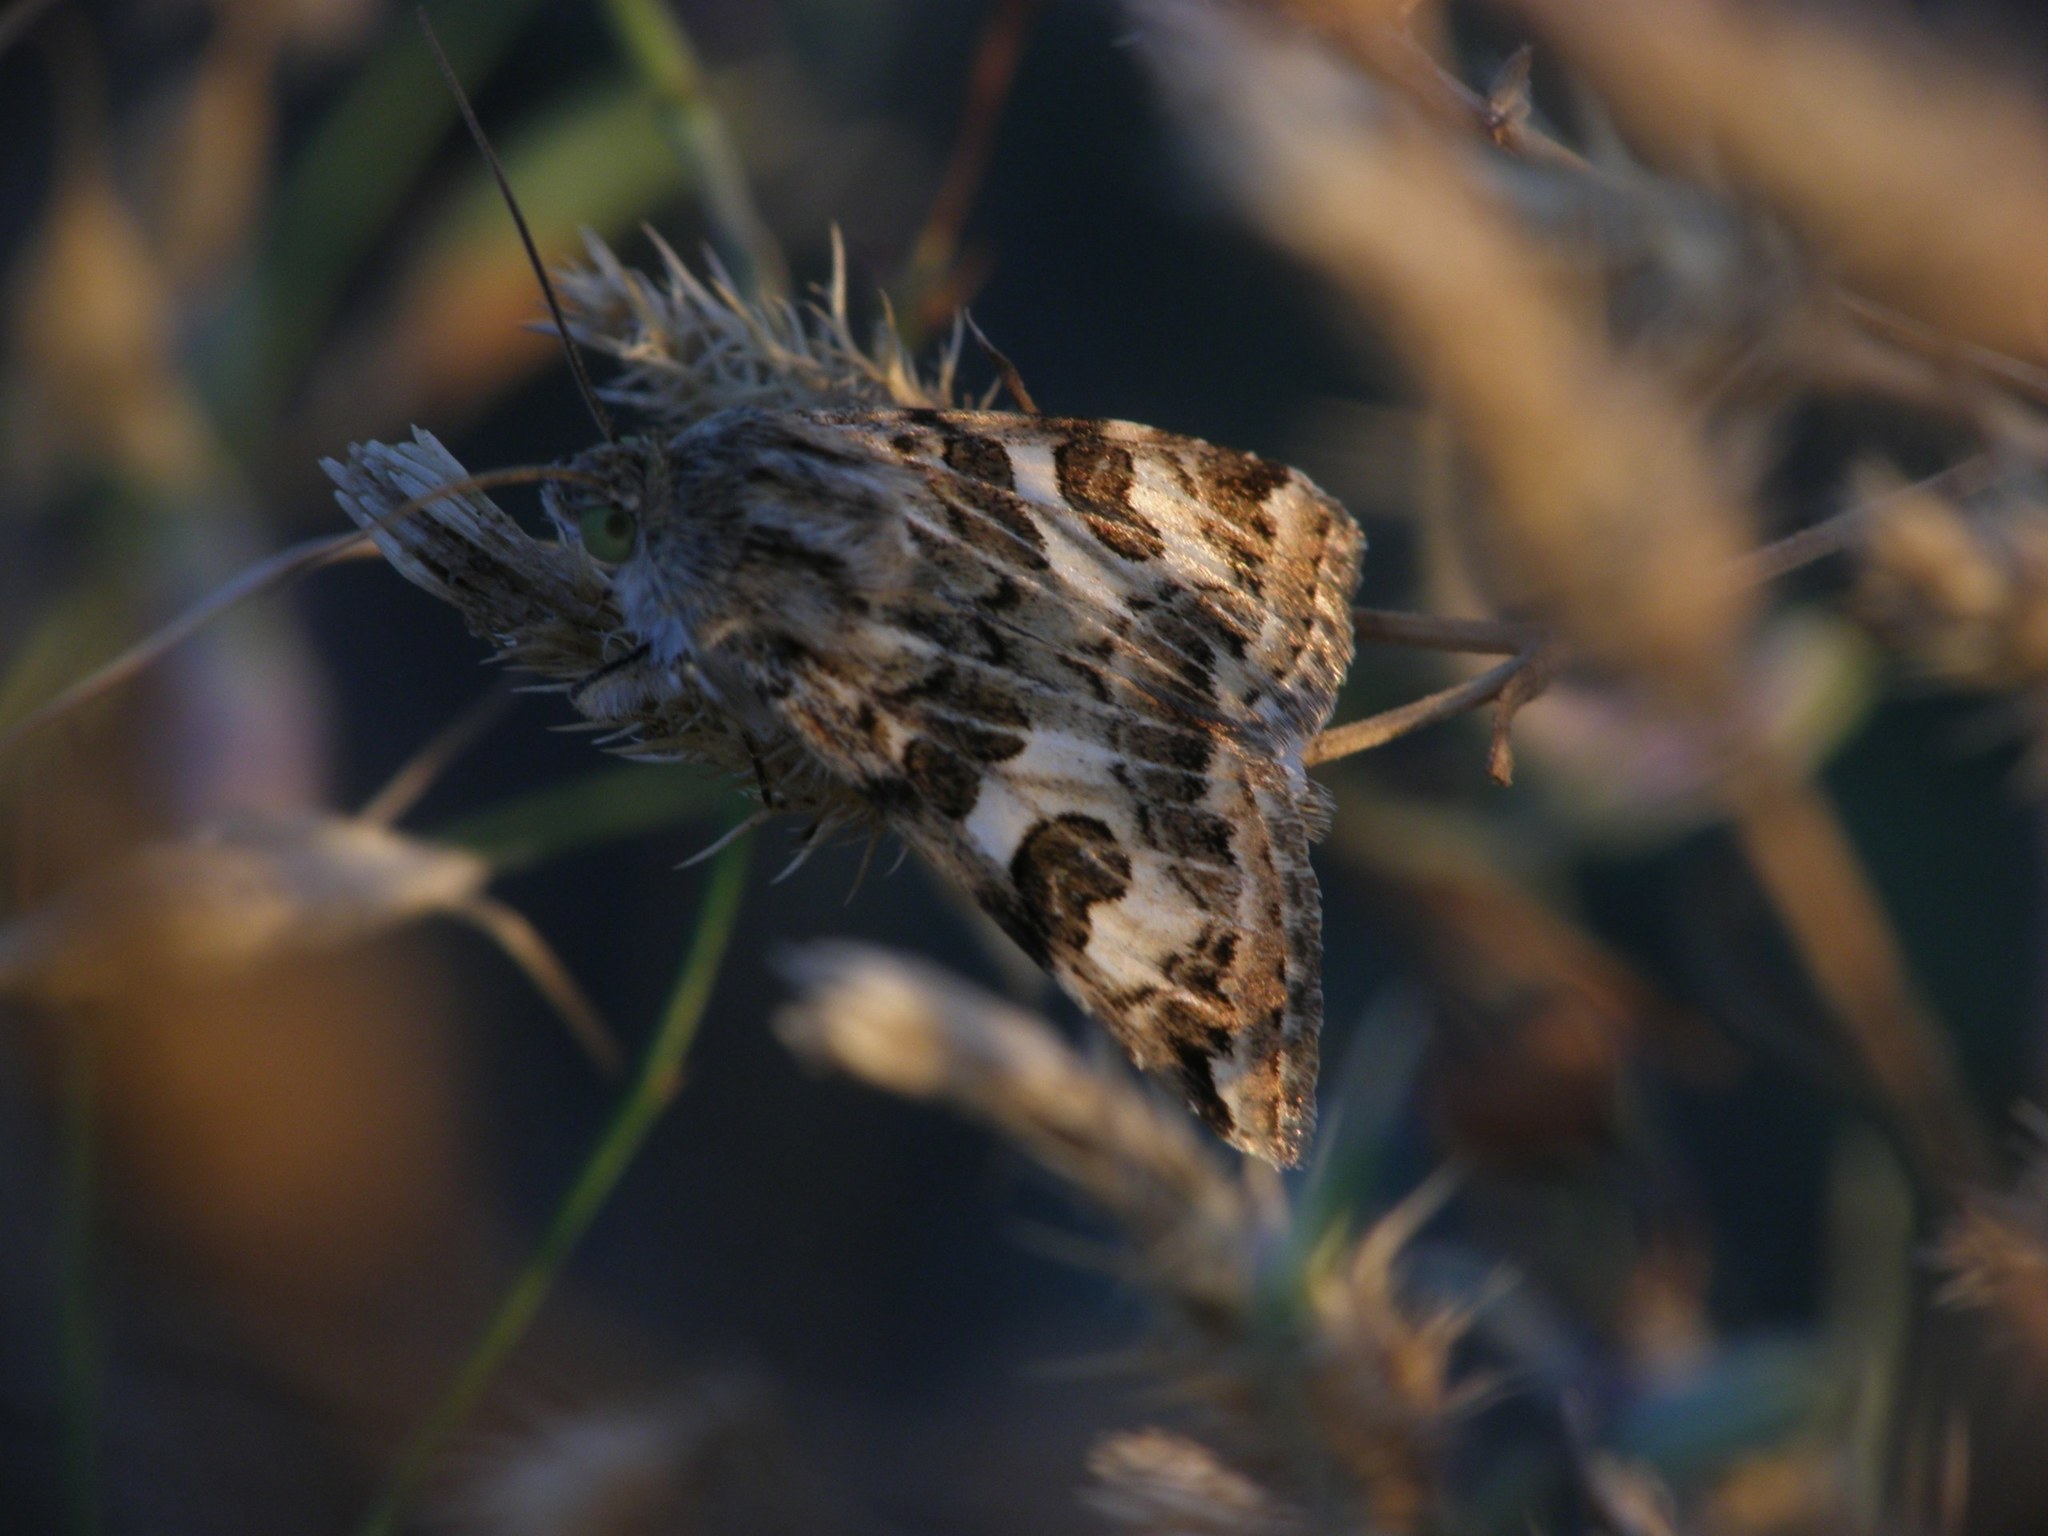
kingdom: Animalia
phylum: Arthropoda
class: Insecta
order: Lepidoptera
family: Noctuidae
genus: Protoschinia
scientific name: Protoschinia scutosa
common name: Spotted clover
